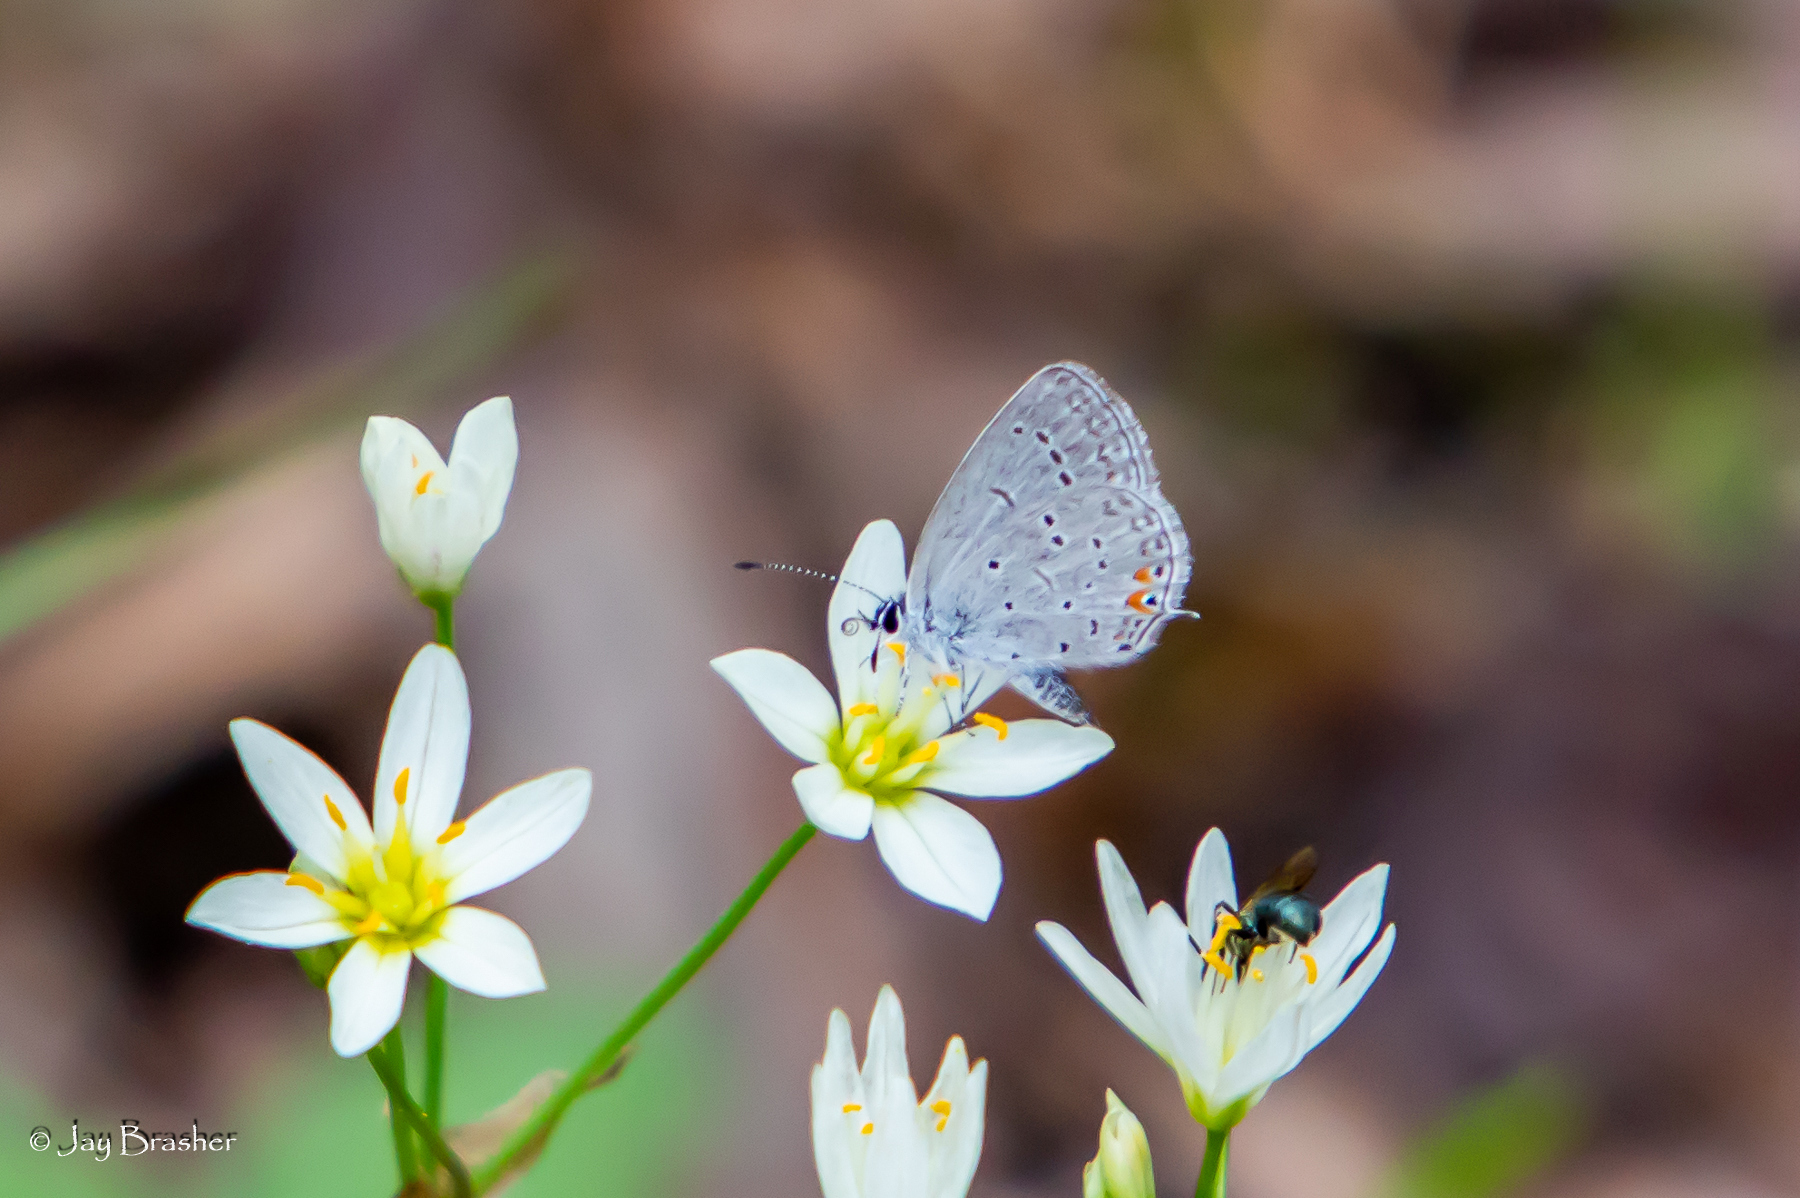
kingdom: Animalia
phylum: Arthropoda
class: Insecta
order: Lepidoptera
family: Lycaenidae
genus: Elkalyce
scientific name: Elkalyce comyntas
